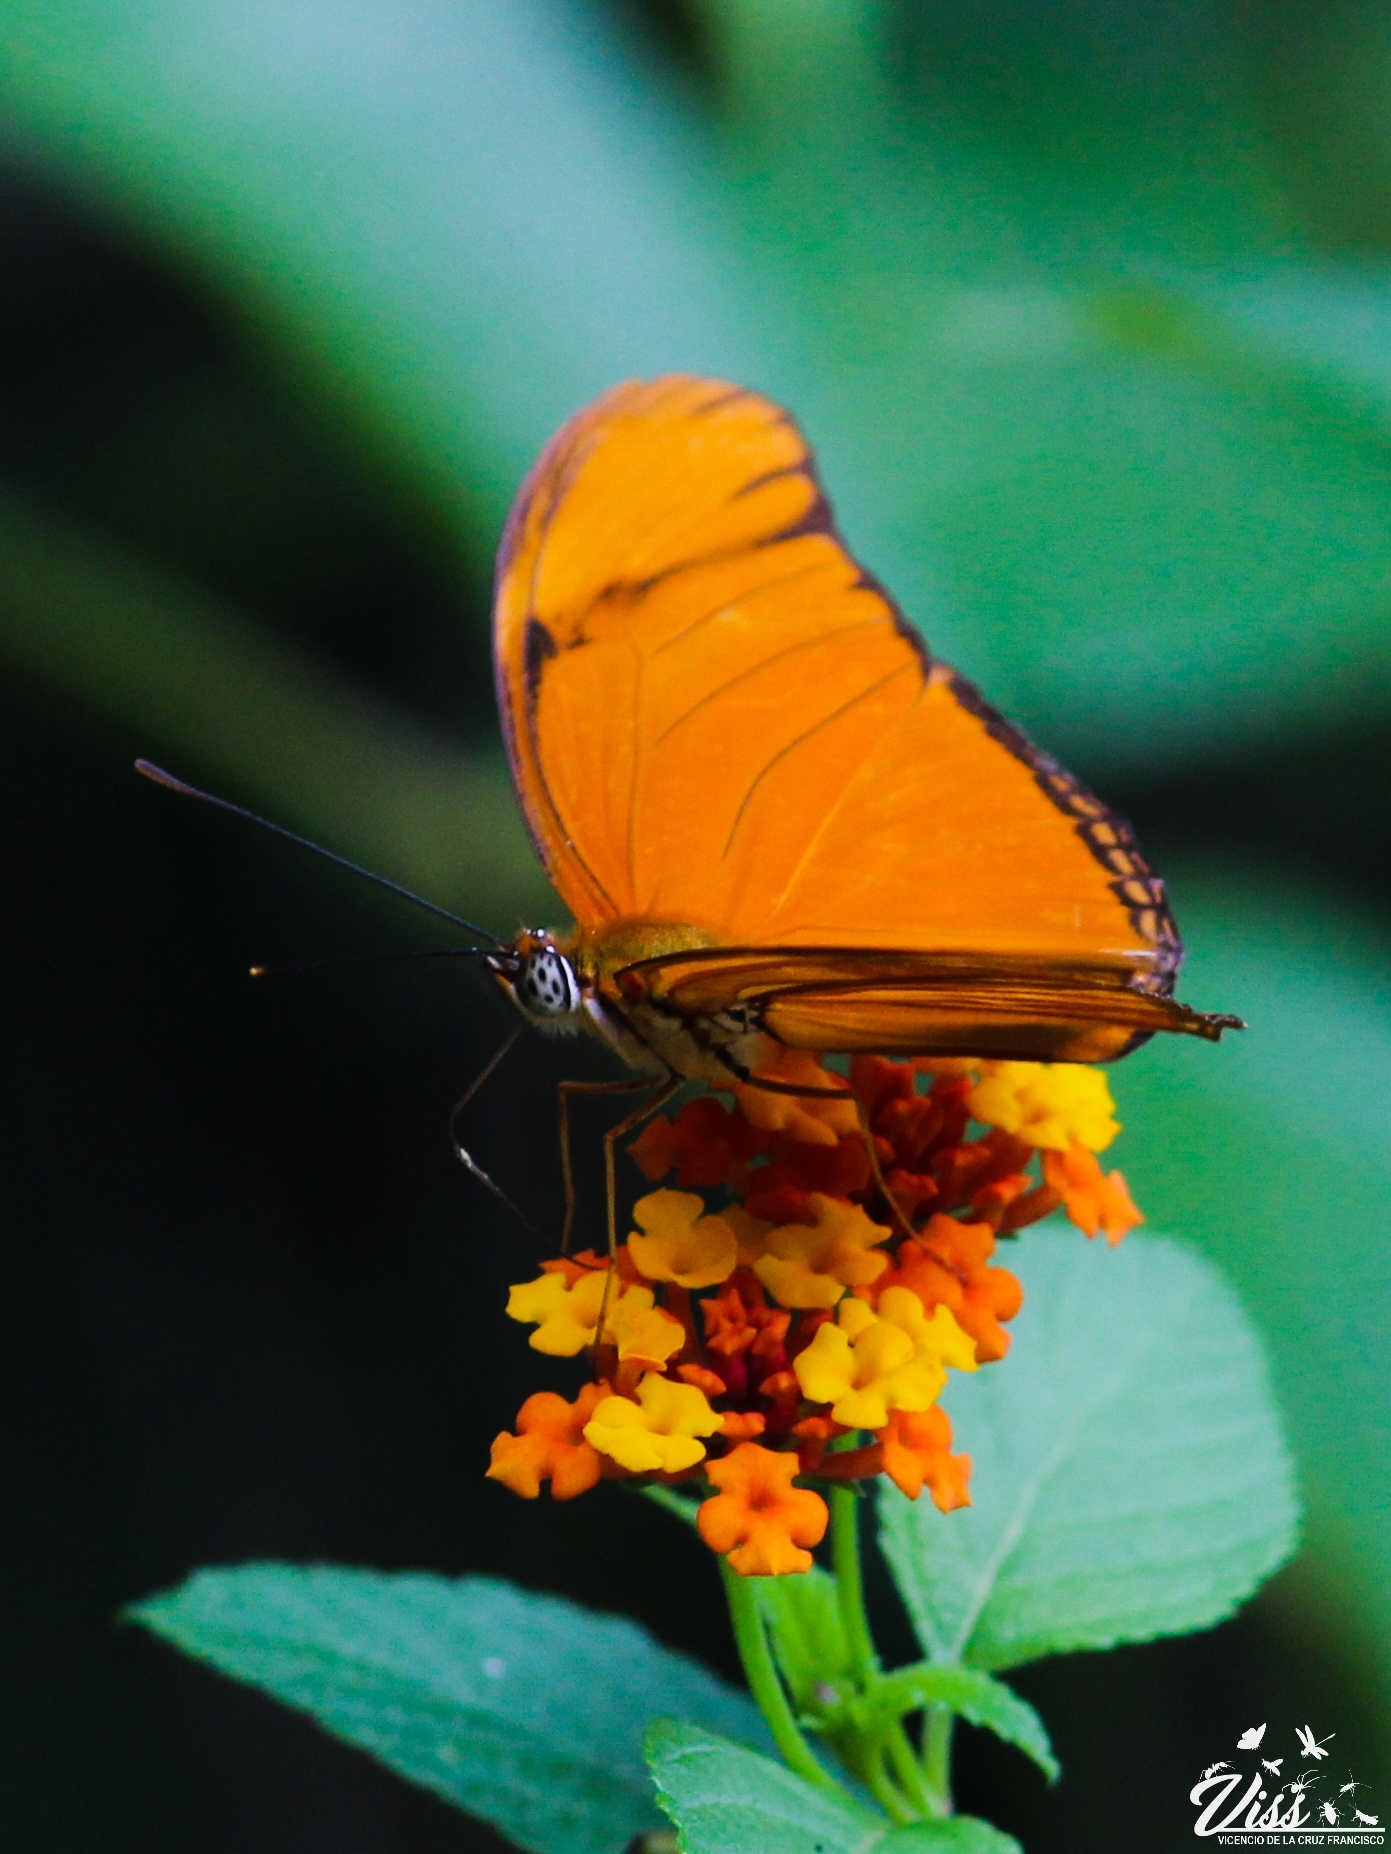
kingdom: Animalia
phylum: Arthropoda
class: Insecta
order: Lepidoptera
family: Nymphalidae
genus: Dryas
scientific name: Dryas iulia
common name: Flambeau
